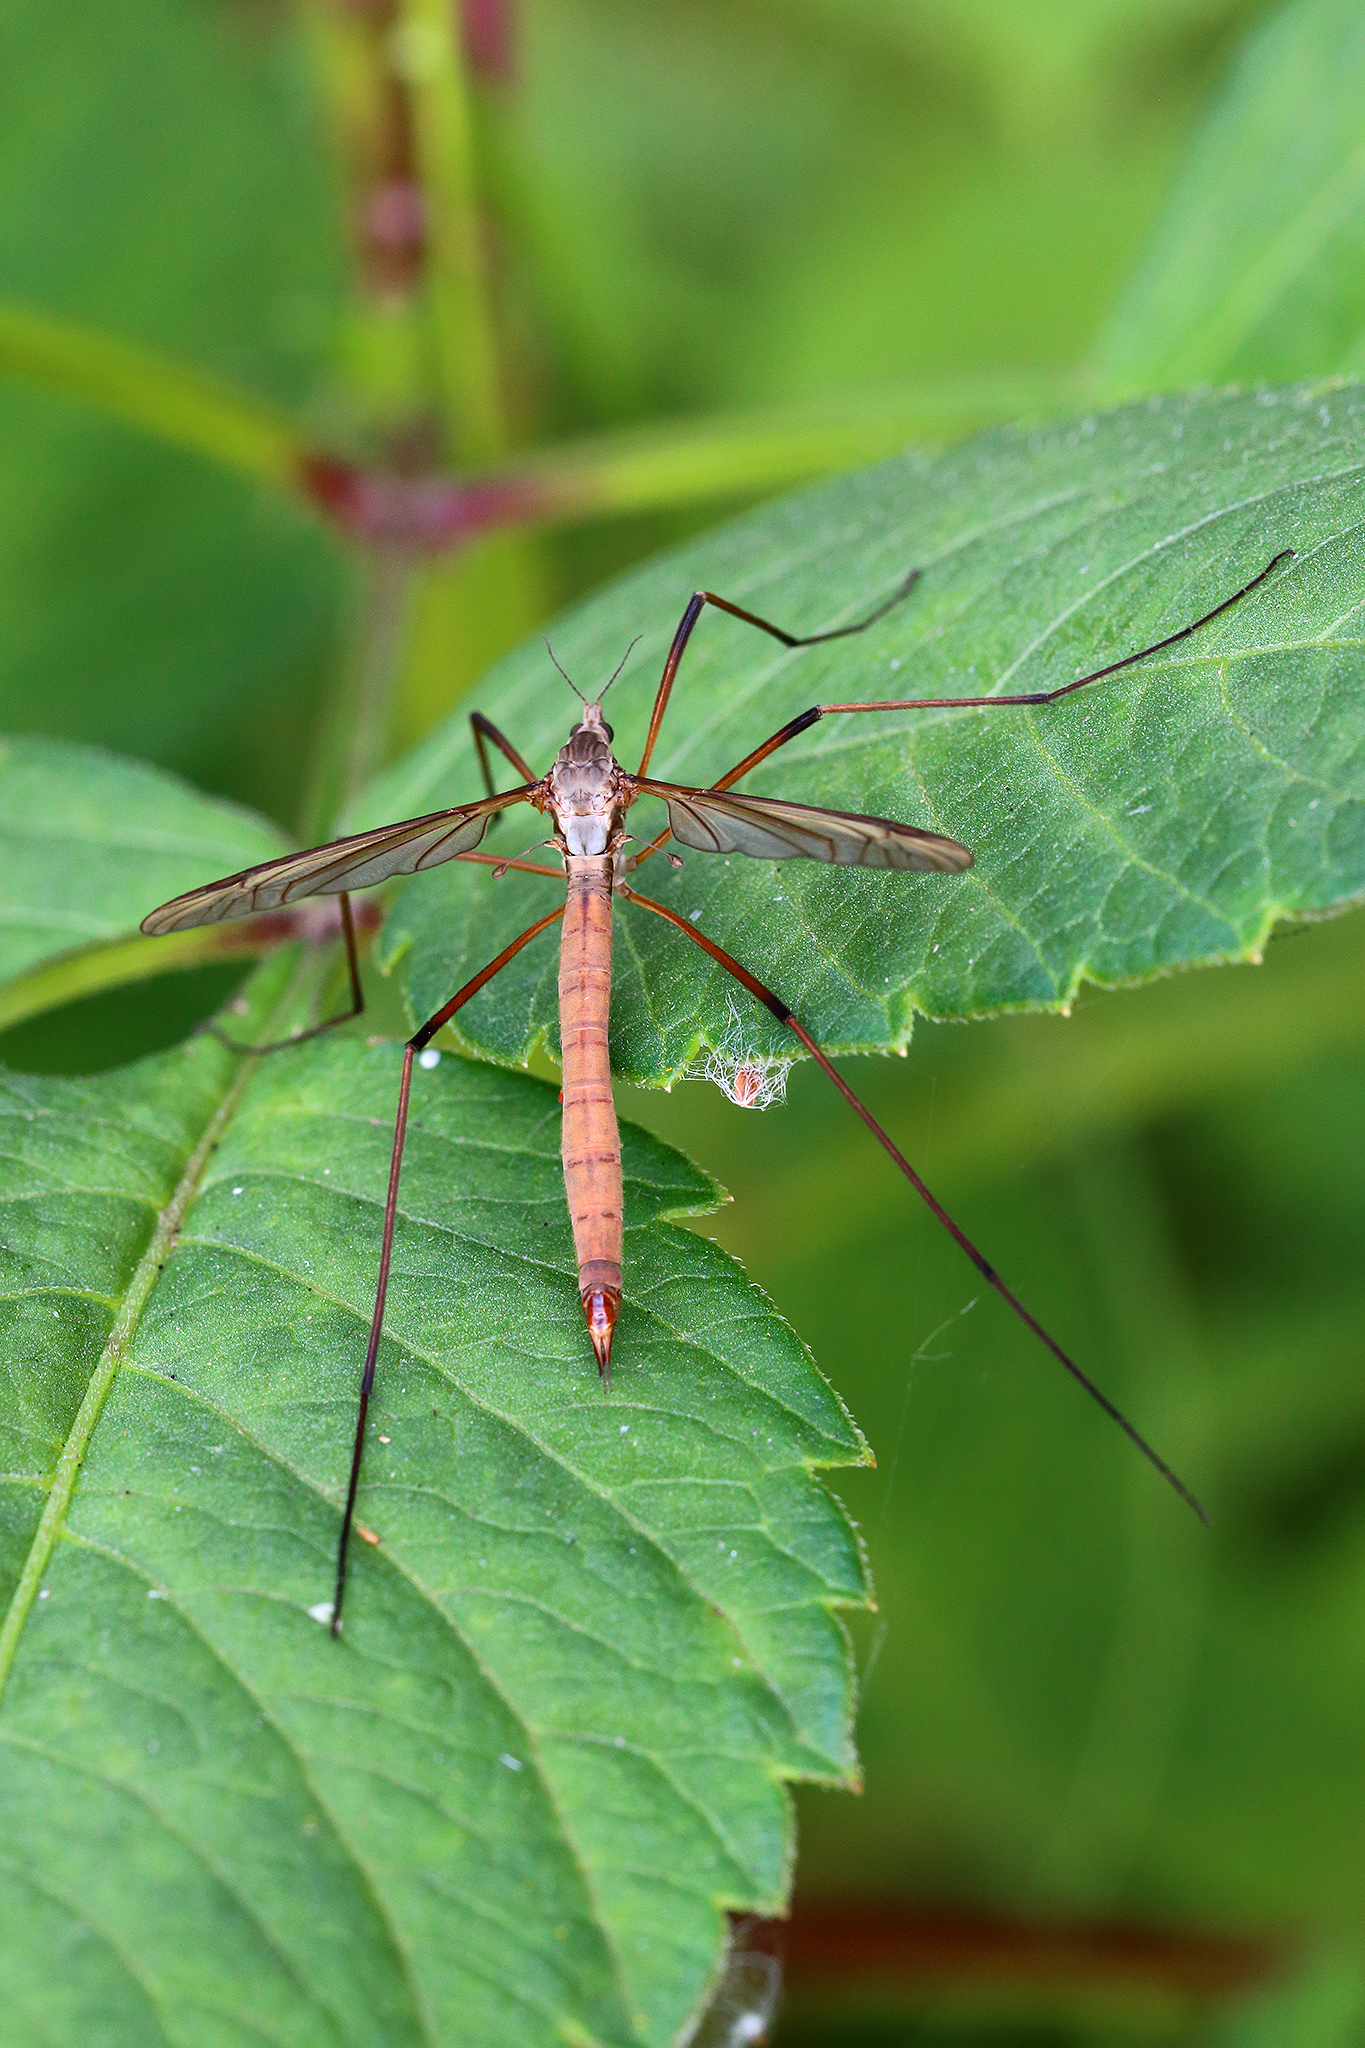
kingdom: Animalia
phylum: Arthropoda
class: Insecta
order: Diptera
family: Tipulidae
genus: Tipula
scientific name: Tipula paludosa
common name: European cranefly
